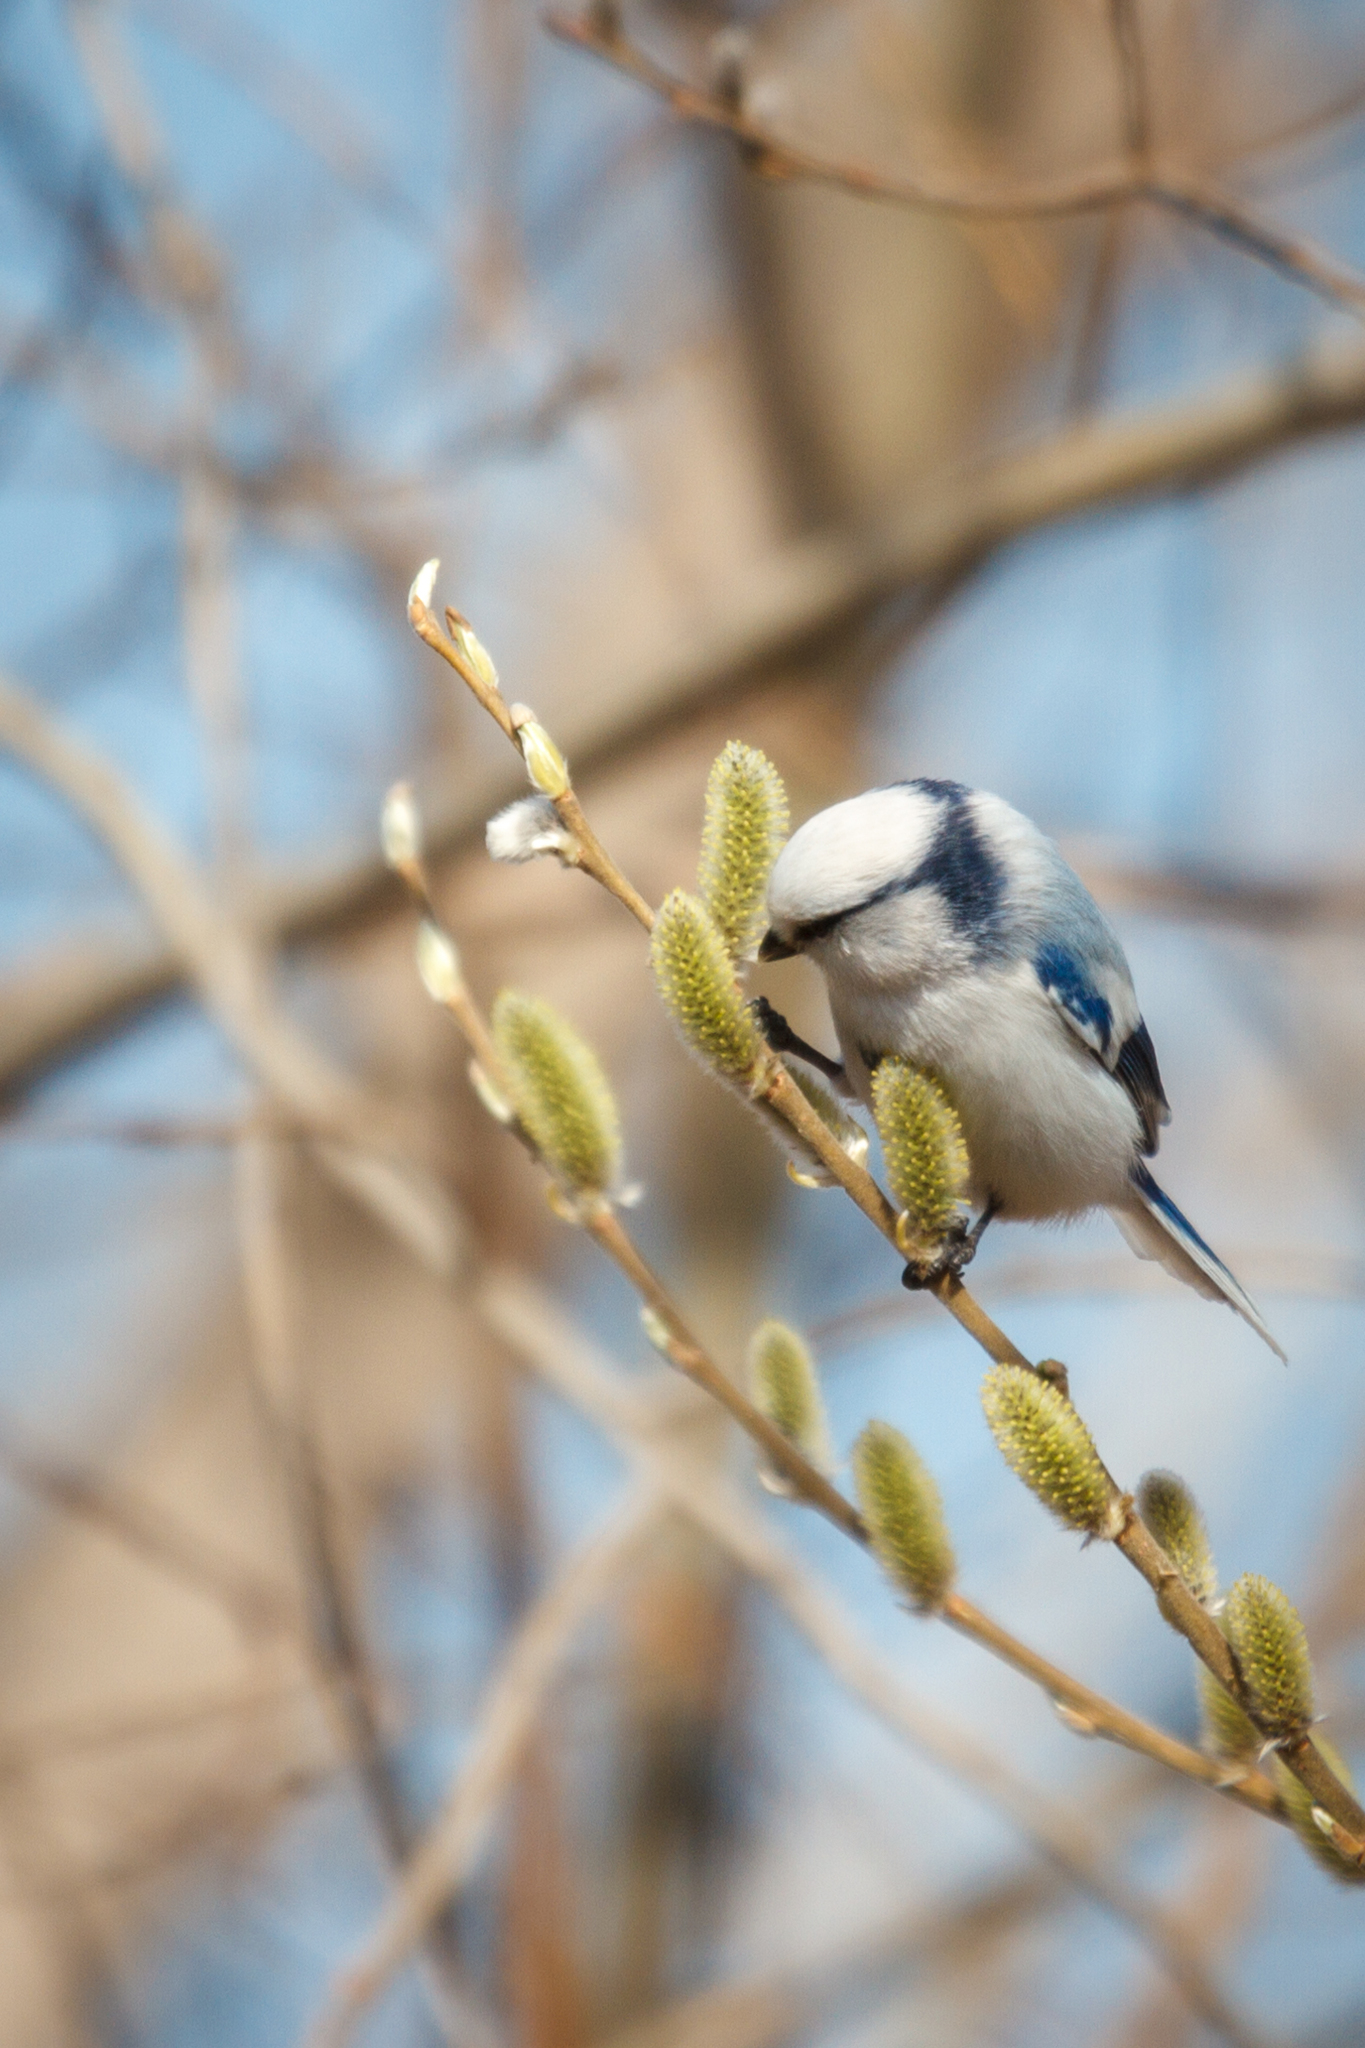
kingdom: Animalia
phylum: Chordata
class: Aves
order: Passeriformes
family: Paridae
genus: Cyanistes
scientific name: Cyanistes cyanus
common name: Azure tit
